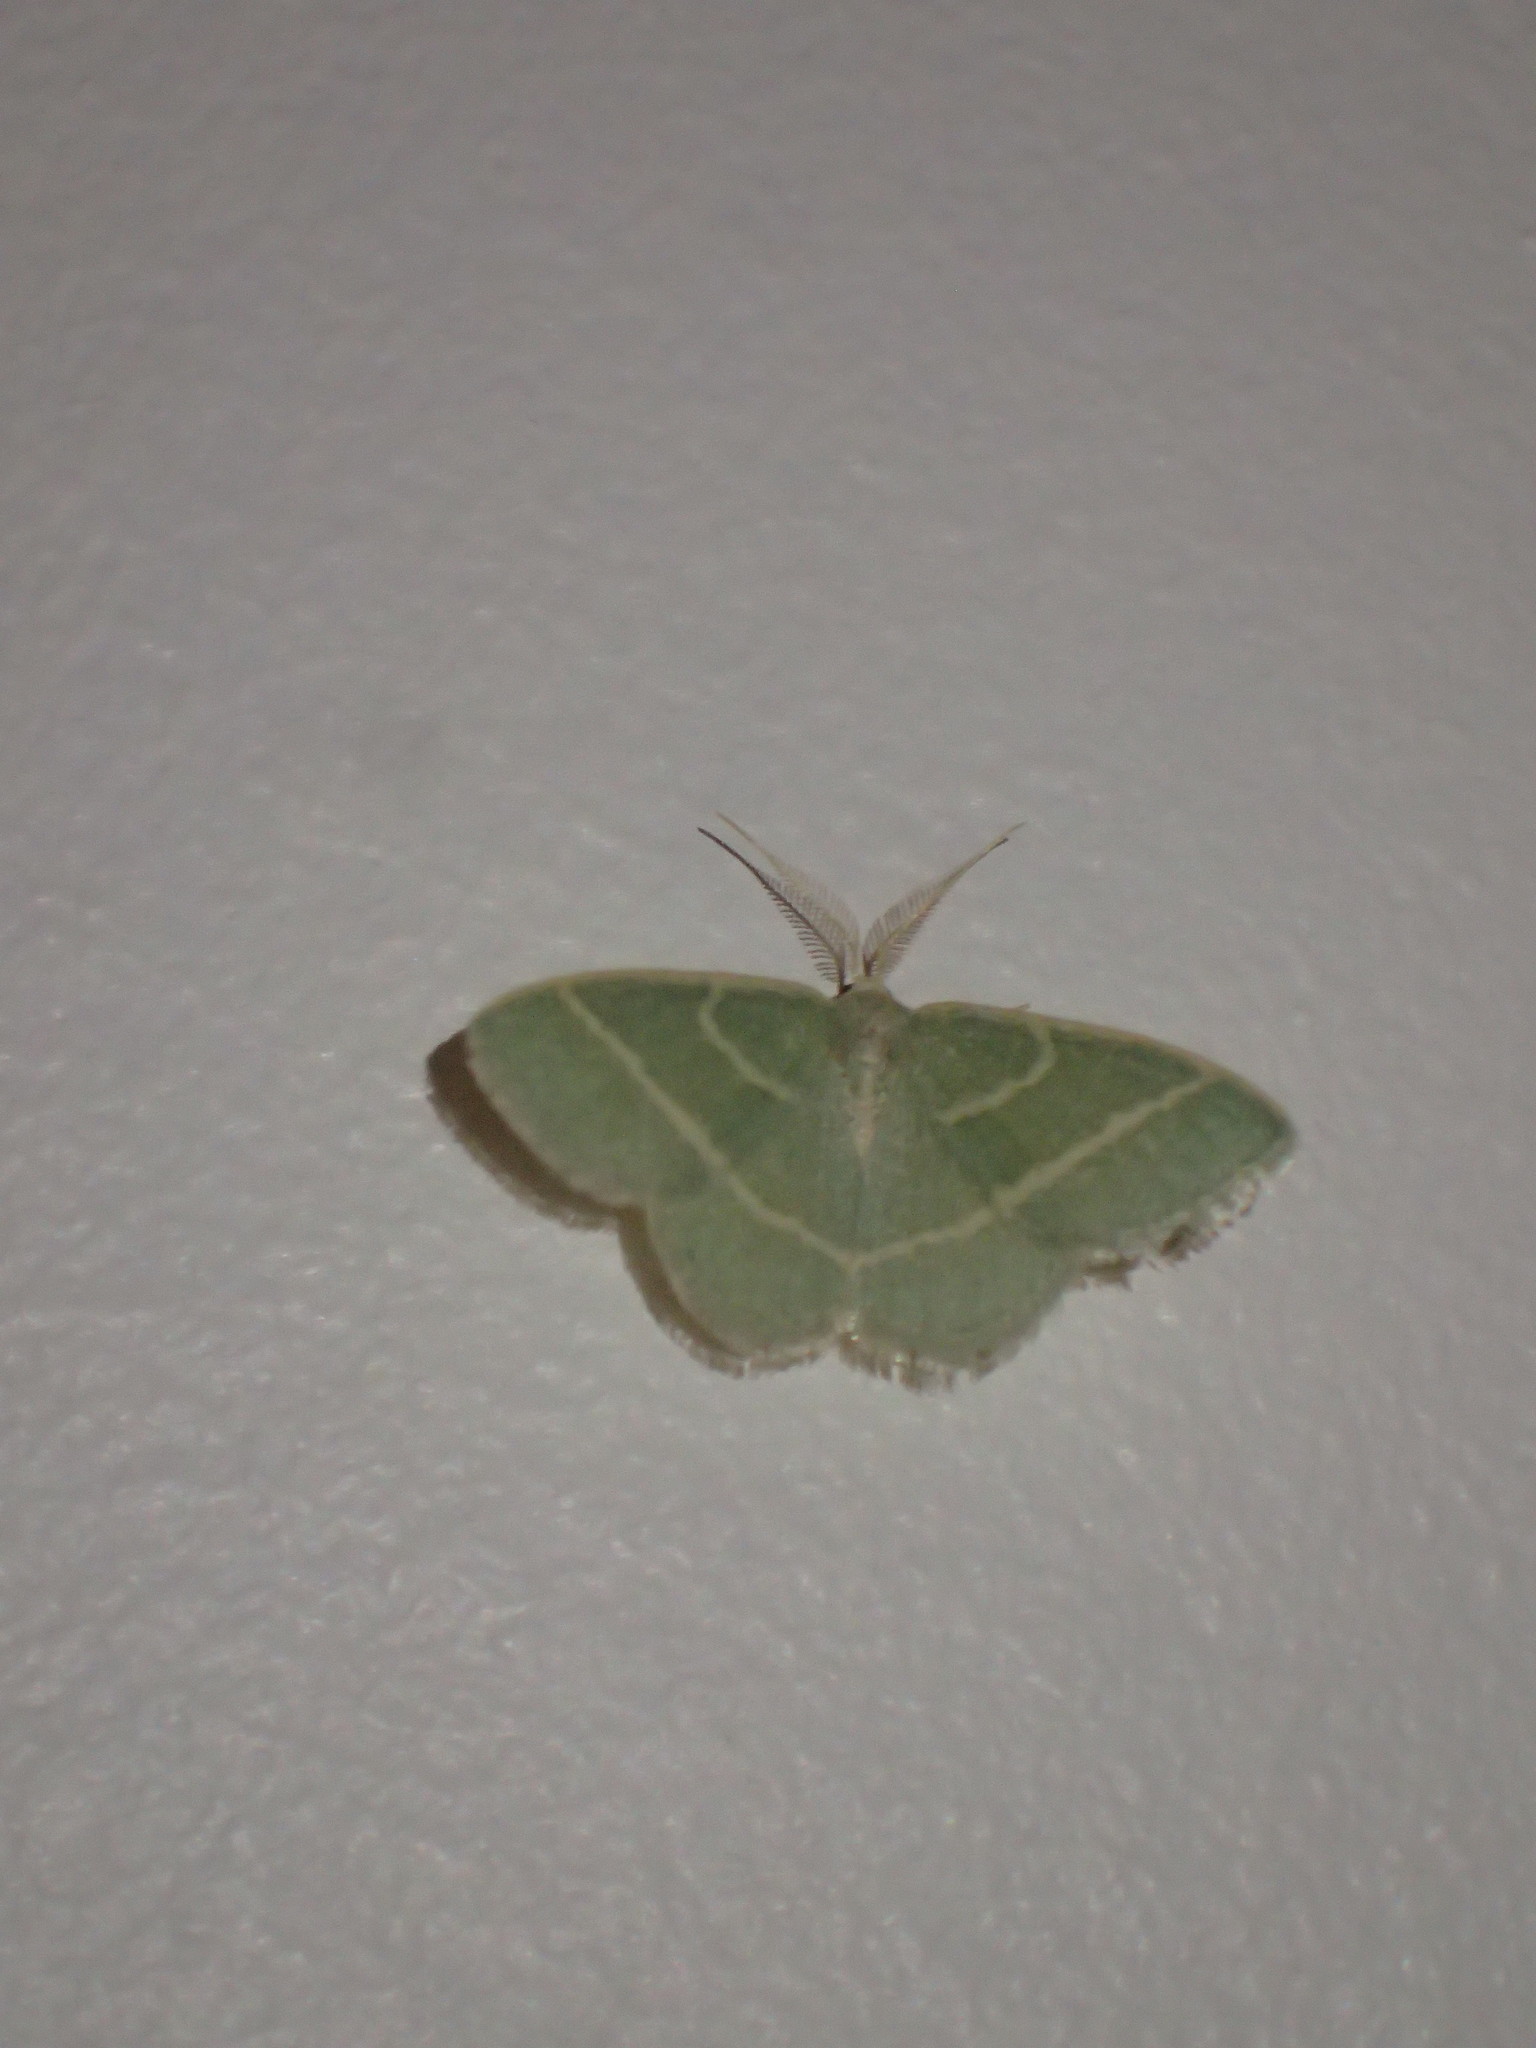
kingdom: Animalia
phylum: Arthropoda
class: Insecta
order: Lepidoptera
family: Geometridae
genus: Chlorochlamys
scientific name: Chlorochlamys chloroleucaria
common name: Blackberry looper
